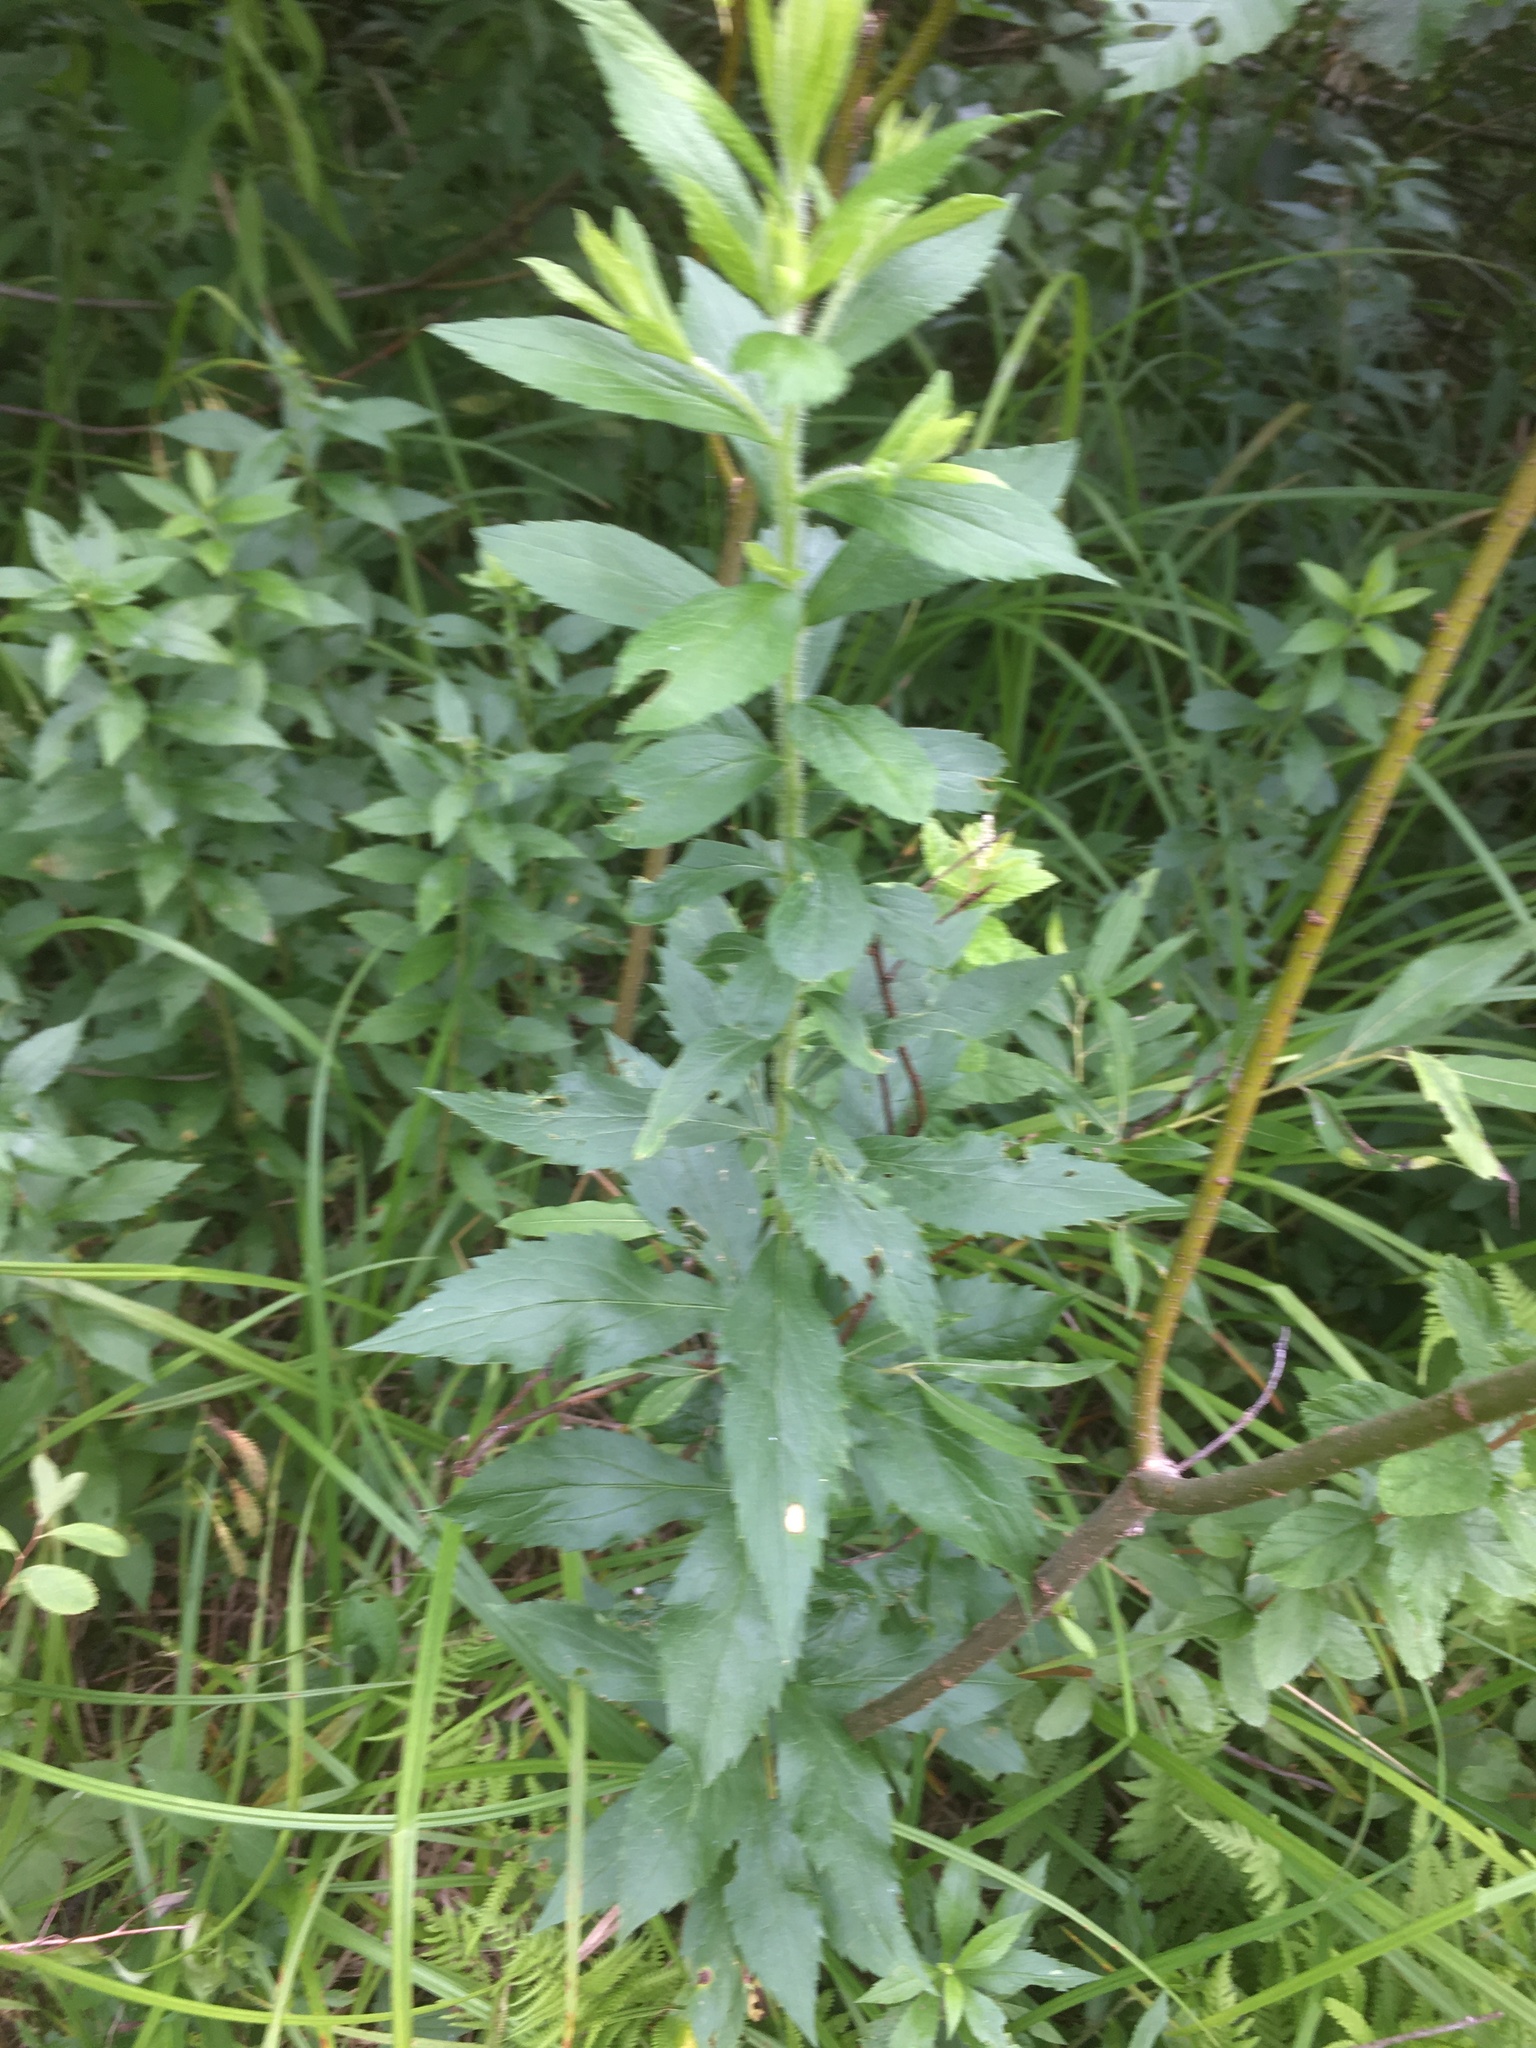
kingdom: Plantae
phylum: Tracheophyta
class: Magnoliopsida
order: Asterales
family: Asteraceae
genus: Solidago
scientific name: Solidago rugosa
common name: Rough-stemmed goldenrod
